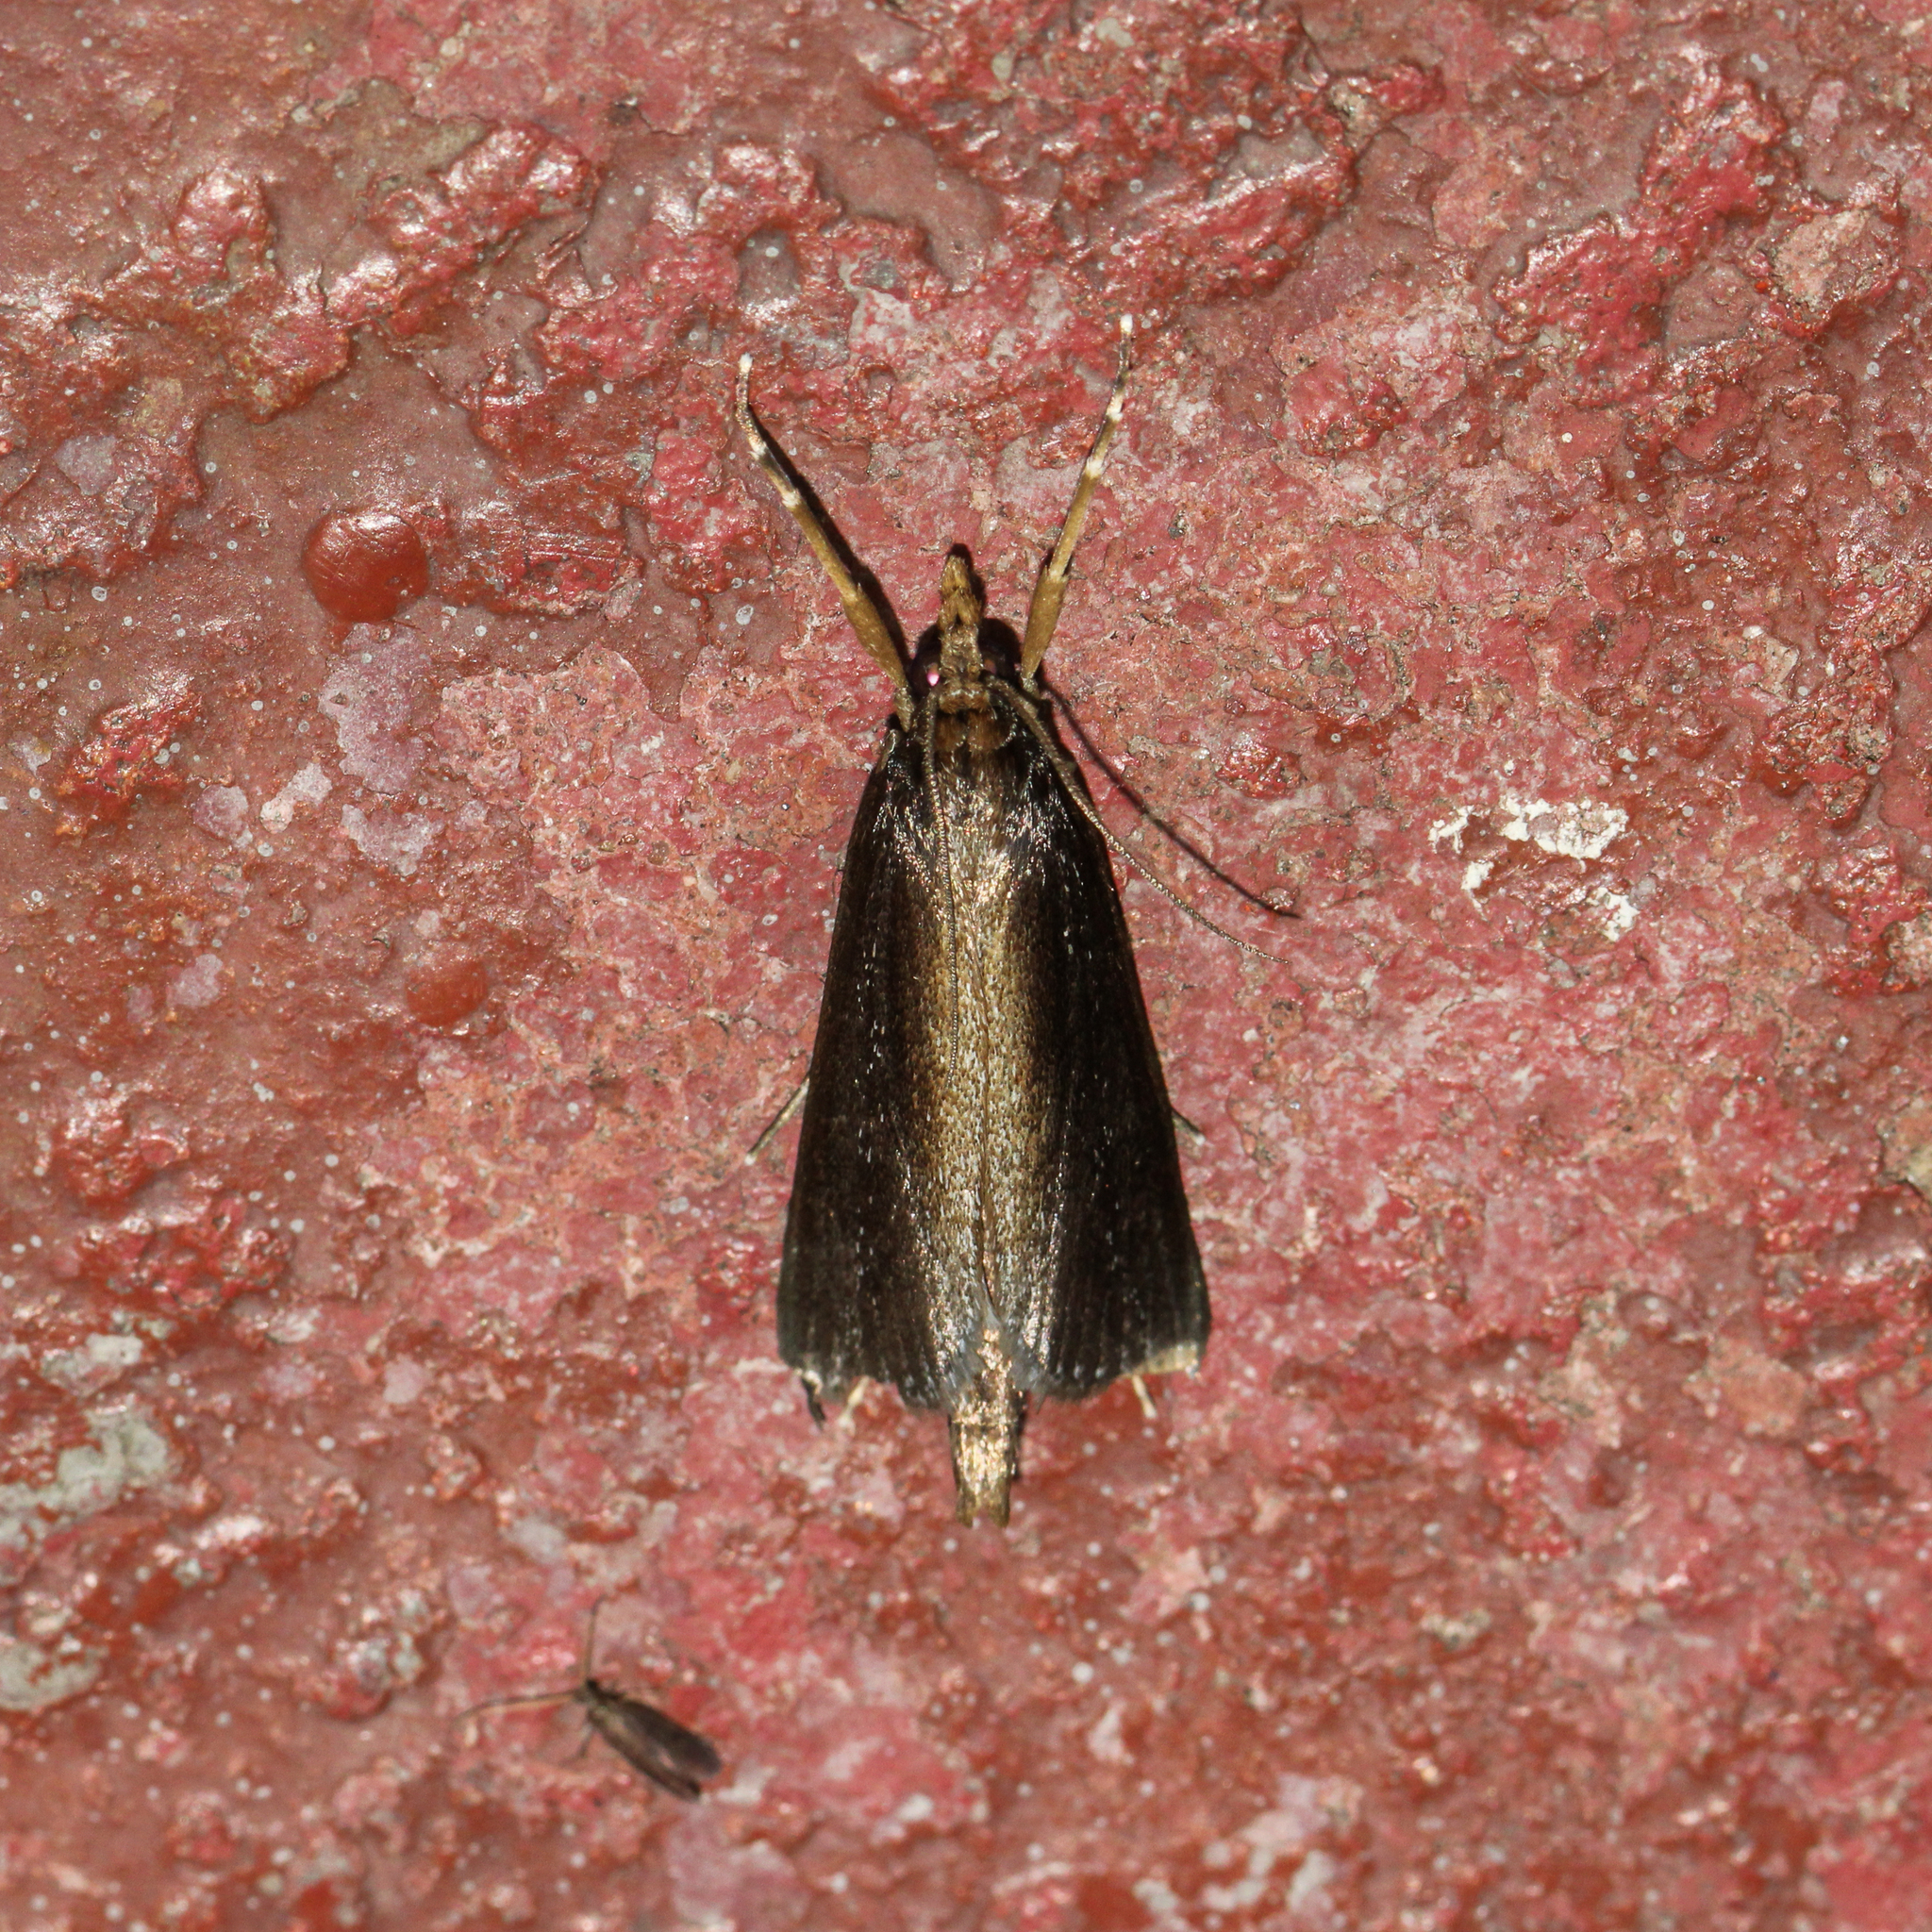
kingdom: Animalia
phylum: Arthropoda
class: Insecta
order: Lepidoptera
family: Crambidae
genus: Carectocultus
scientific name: Carectocultus perstrialis
